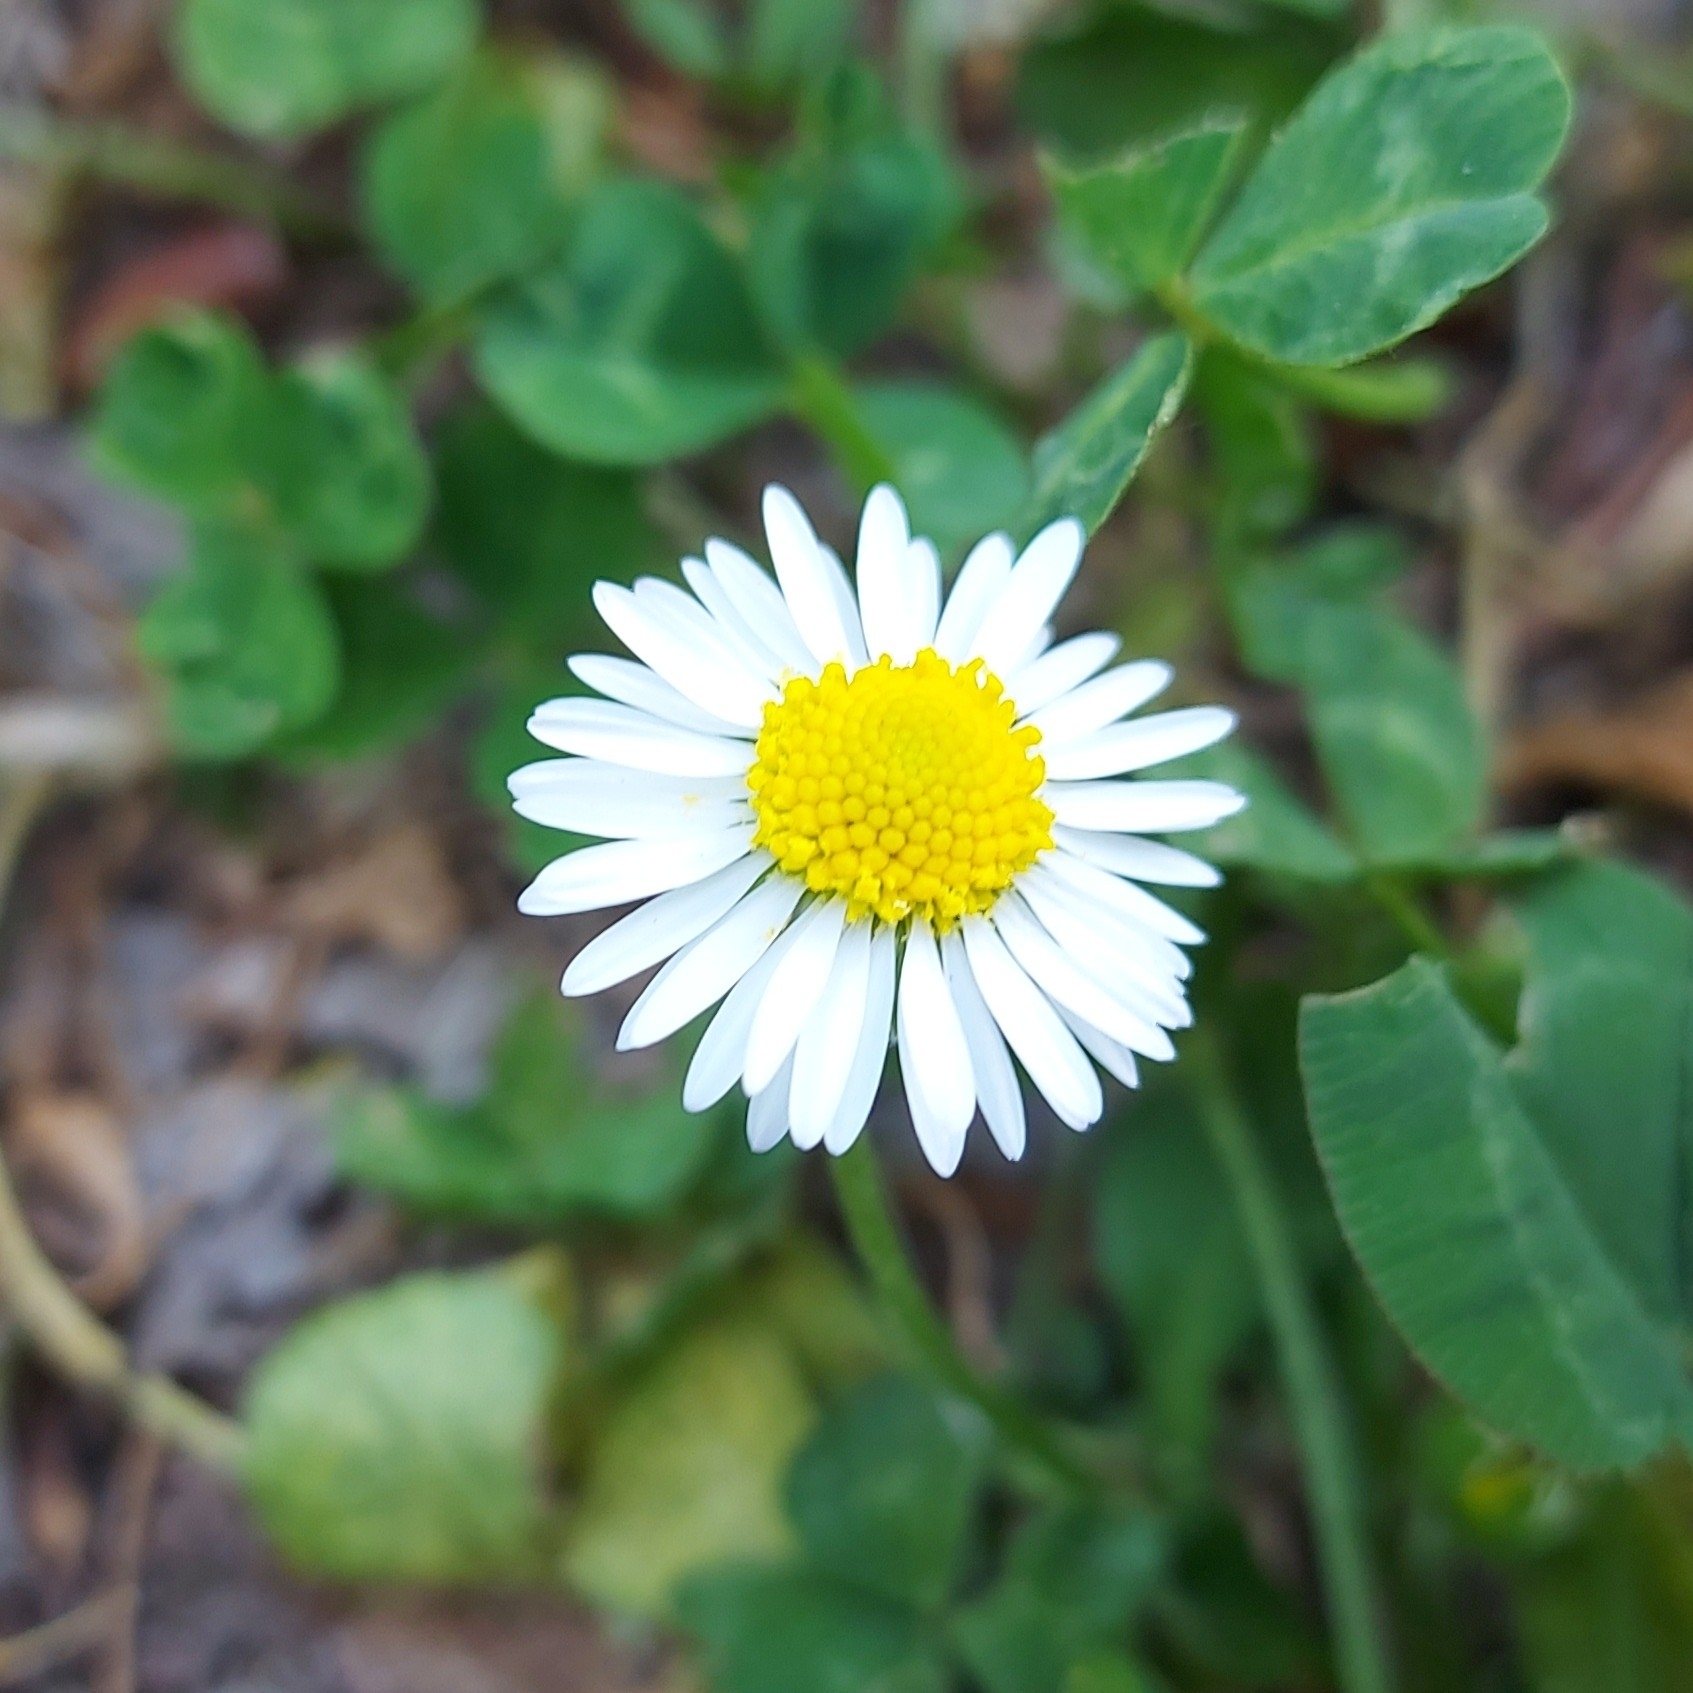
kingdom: Plantae
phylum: Tracheophyta
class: Magnoliopsida
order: Asterales
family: Asteraceae
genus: Bellis
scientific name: Bellis perennis
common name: Lawndaisy
